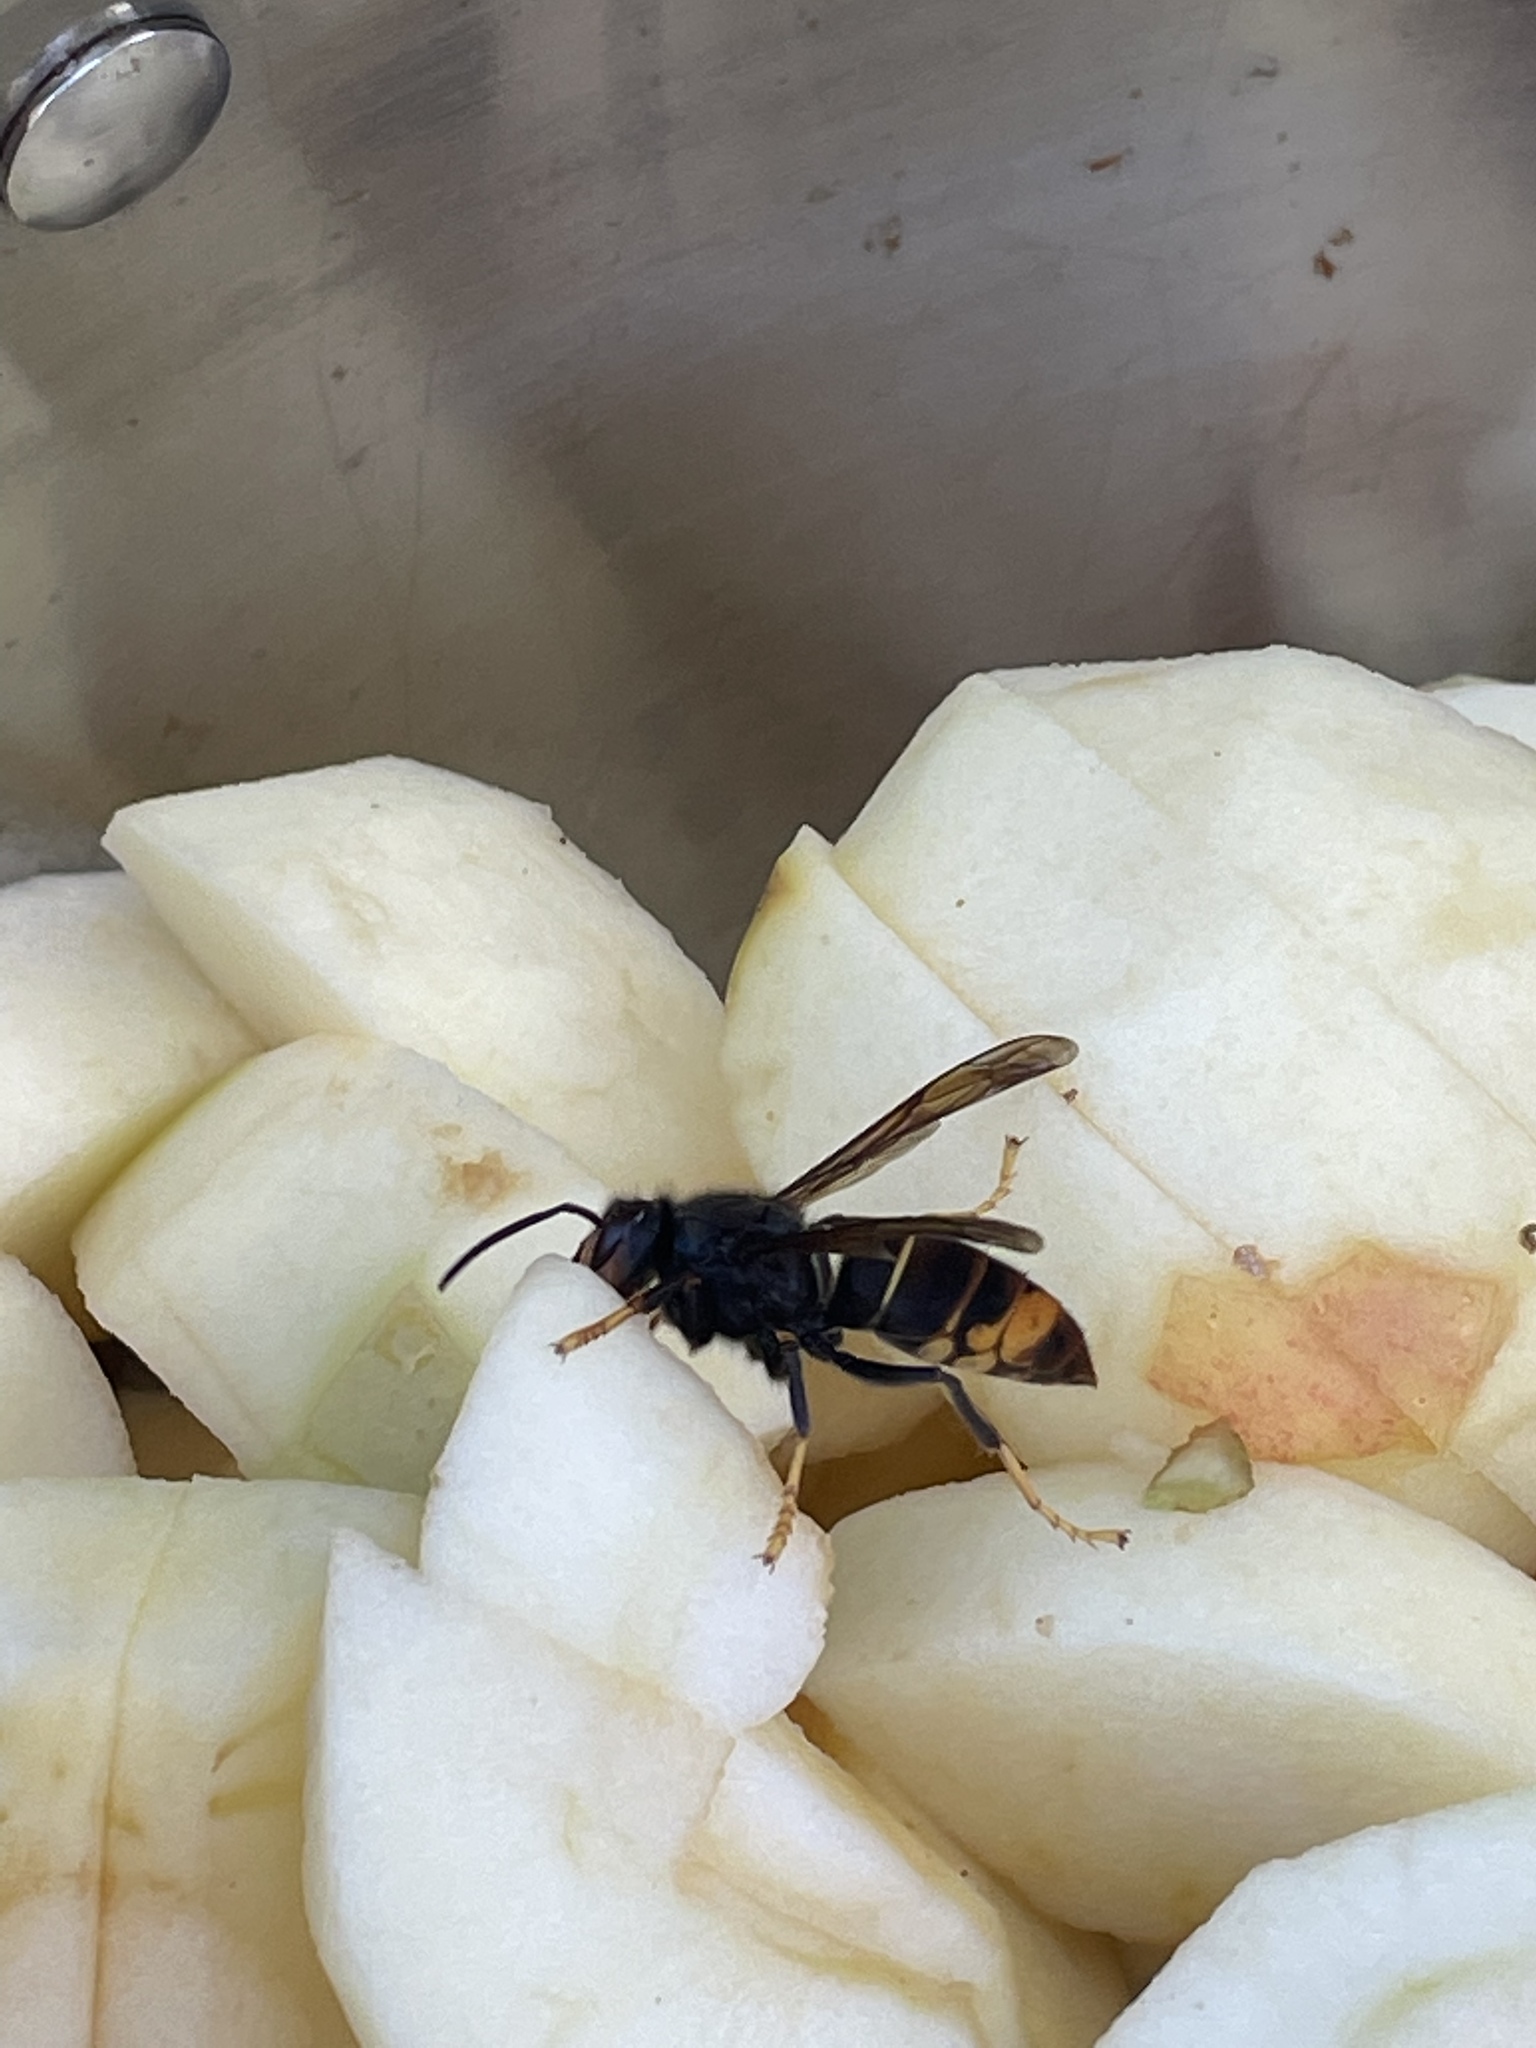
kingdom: Animalia
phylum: Arthropoda
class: Insecta
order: Hymenoptera
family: Vespidae
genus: Vespa
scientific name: Vespa velutina
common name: Asian hornet
